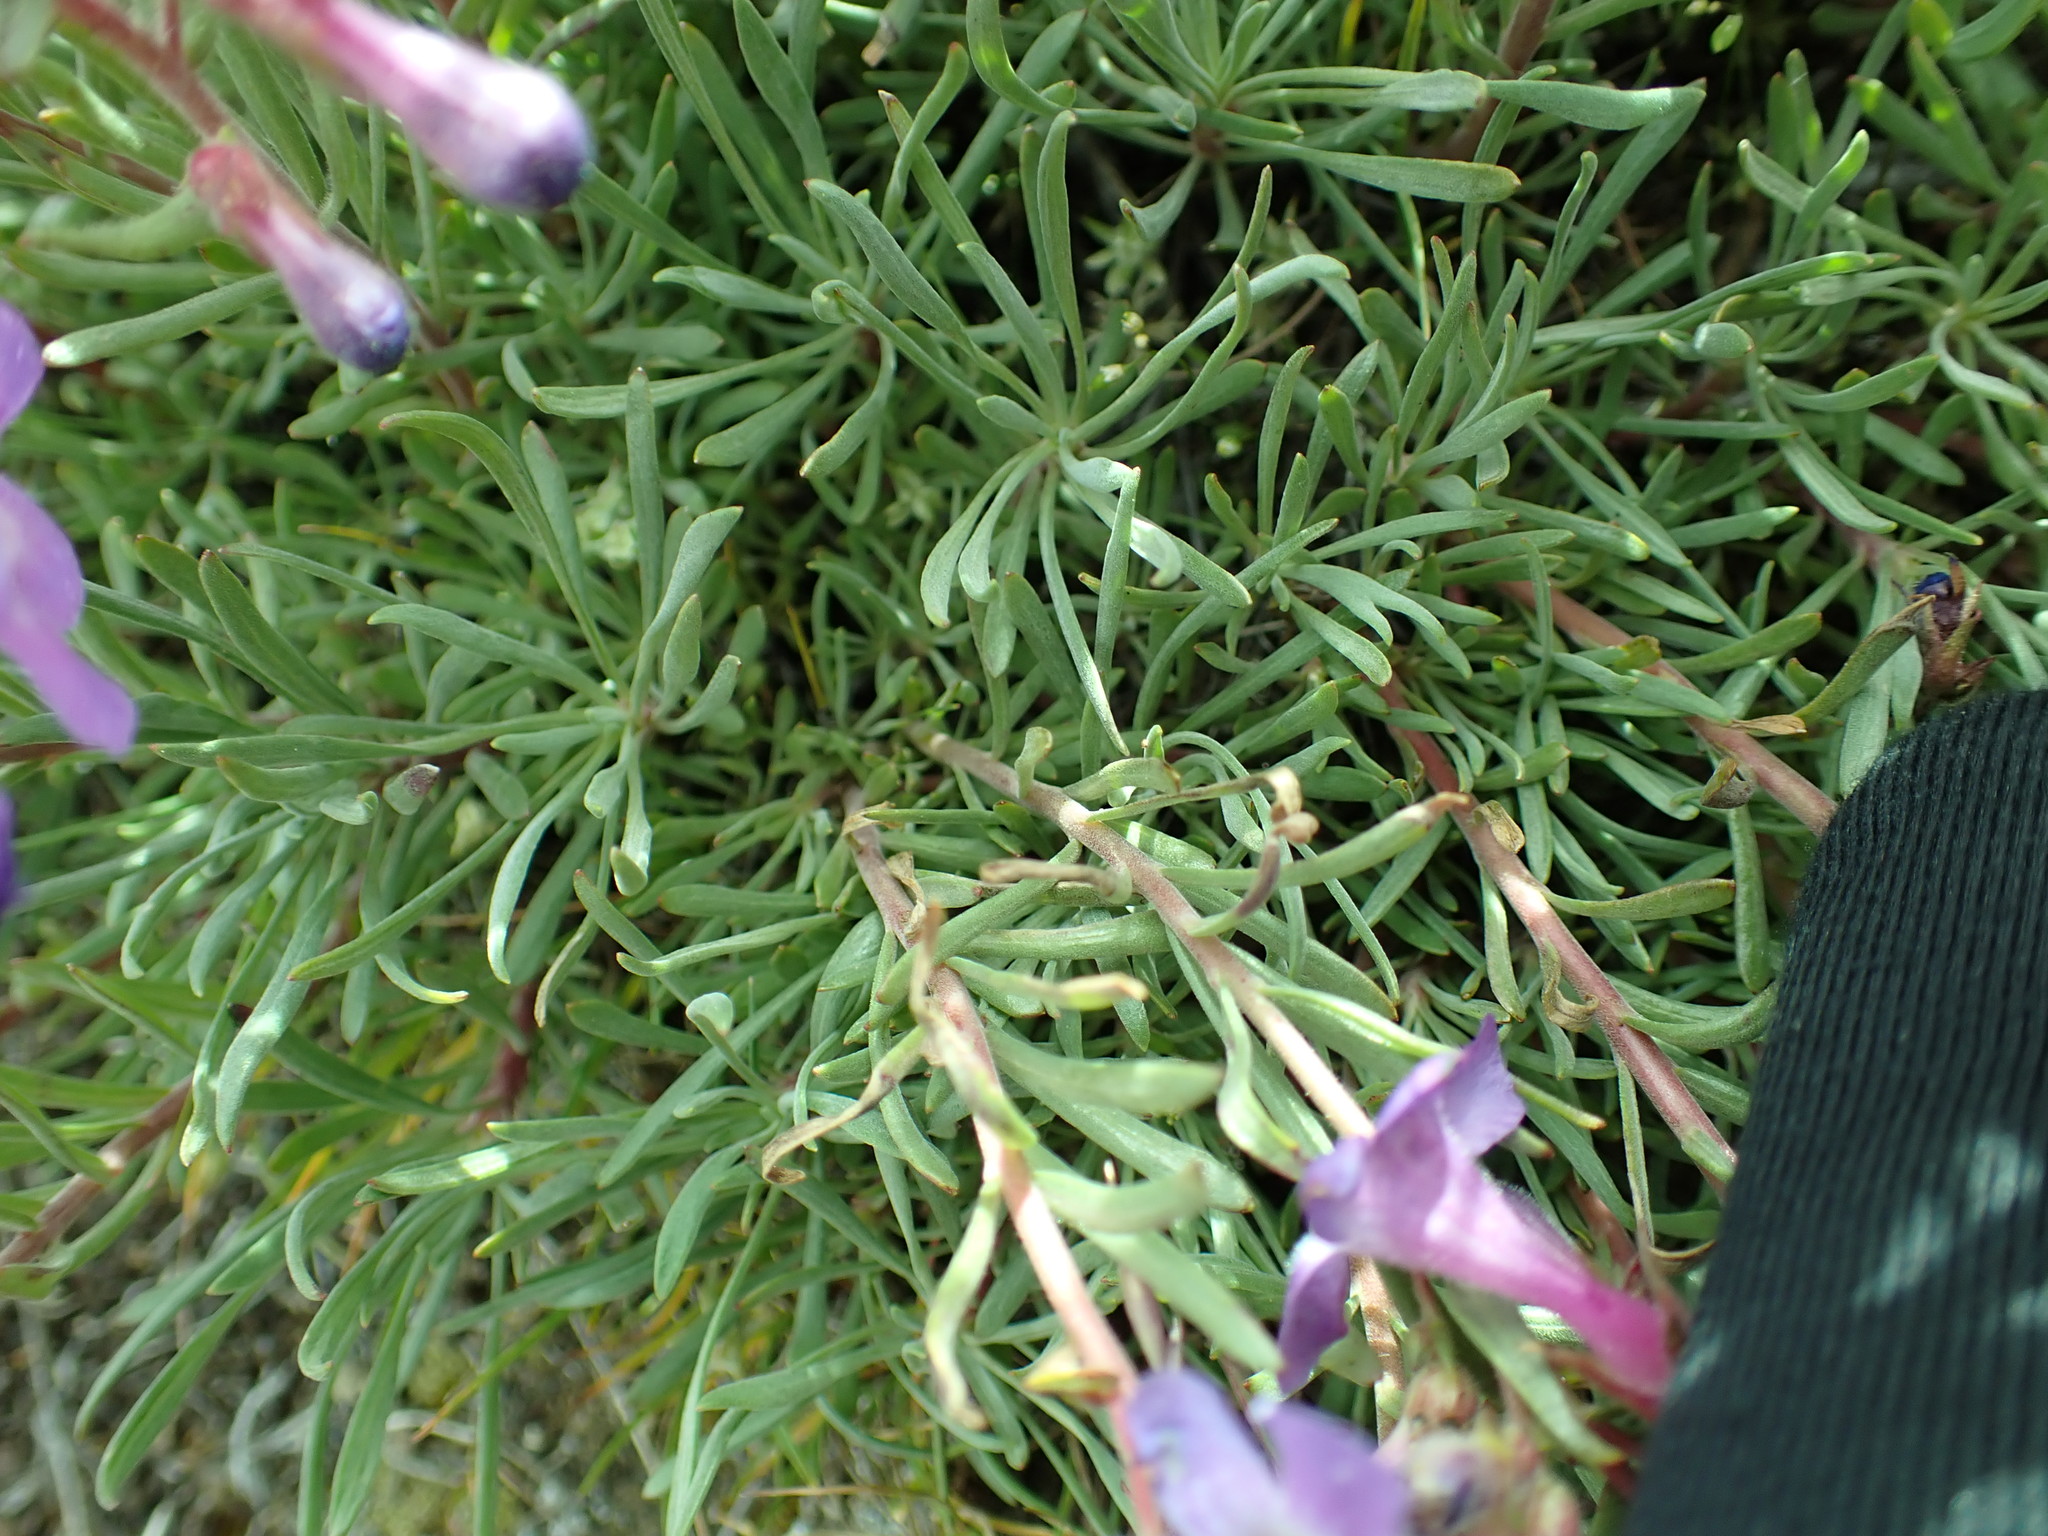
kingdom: Plantae
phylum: Tracheophyta
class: Magnoliopsida
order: Lamiales
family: Plantaginaceae
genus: Penstemon
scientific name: Penstemon gairdneri
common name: Gairdner's penstemon
